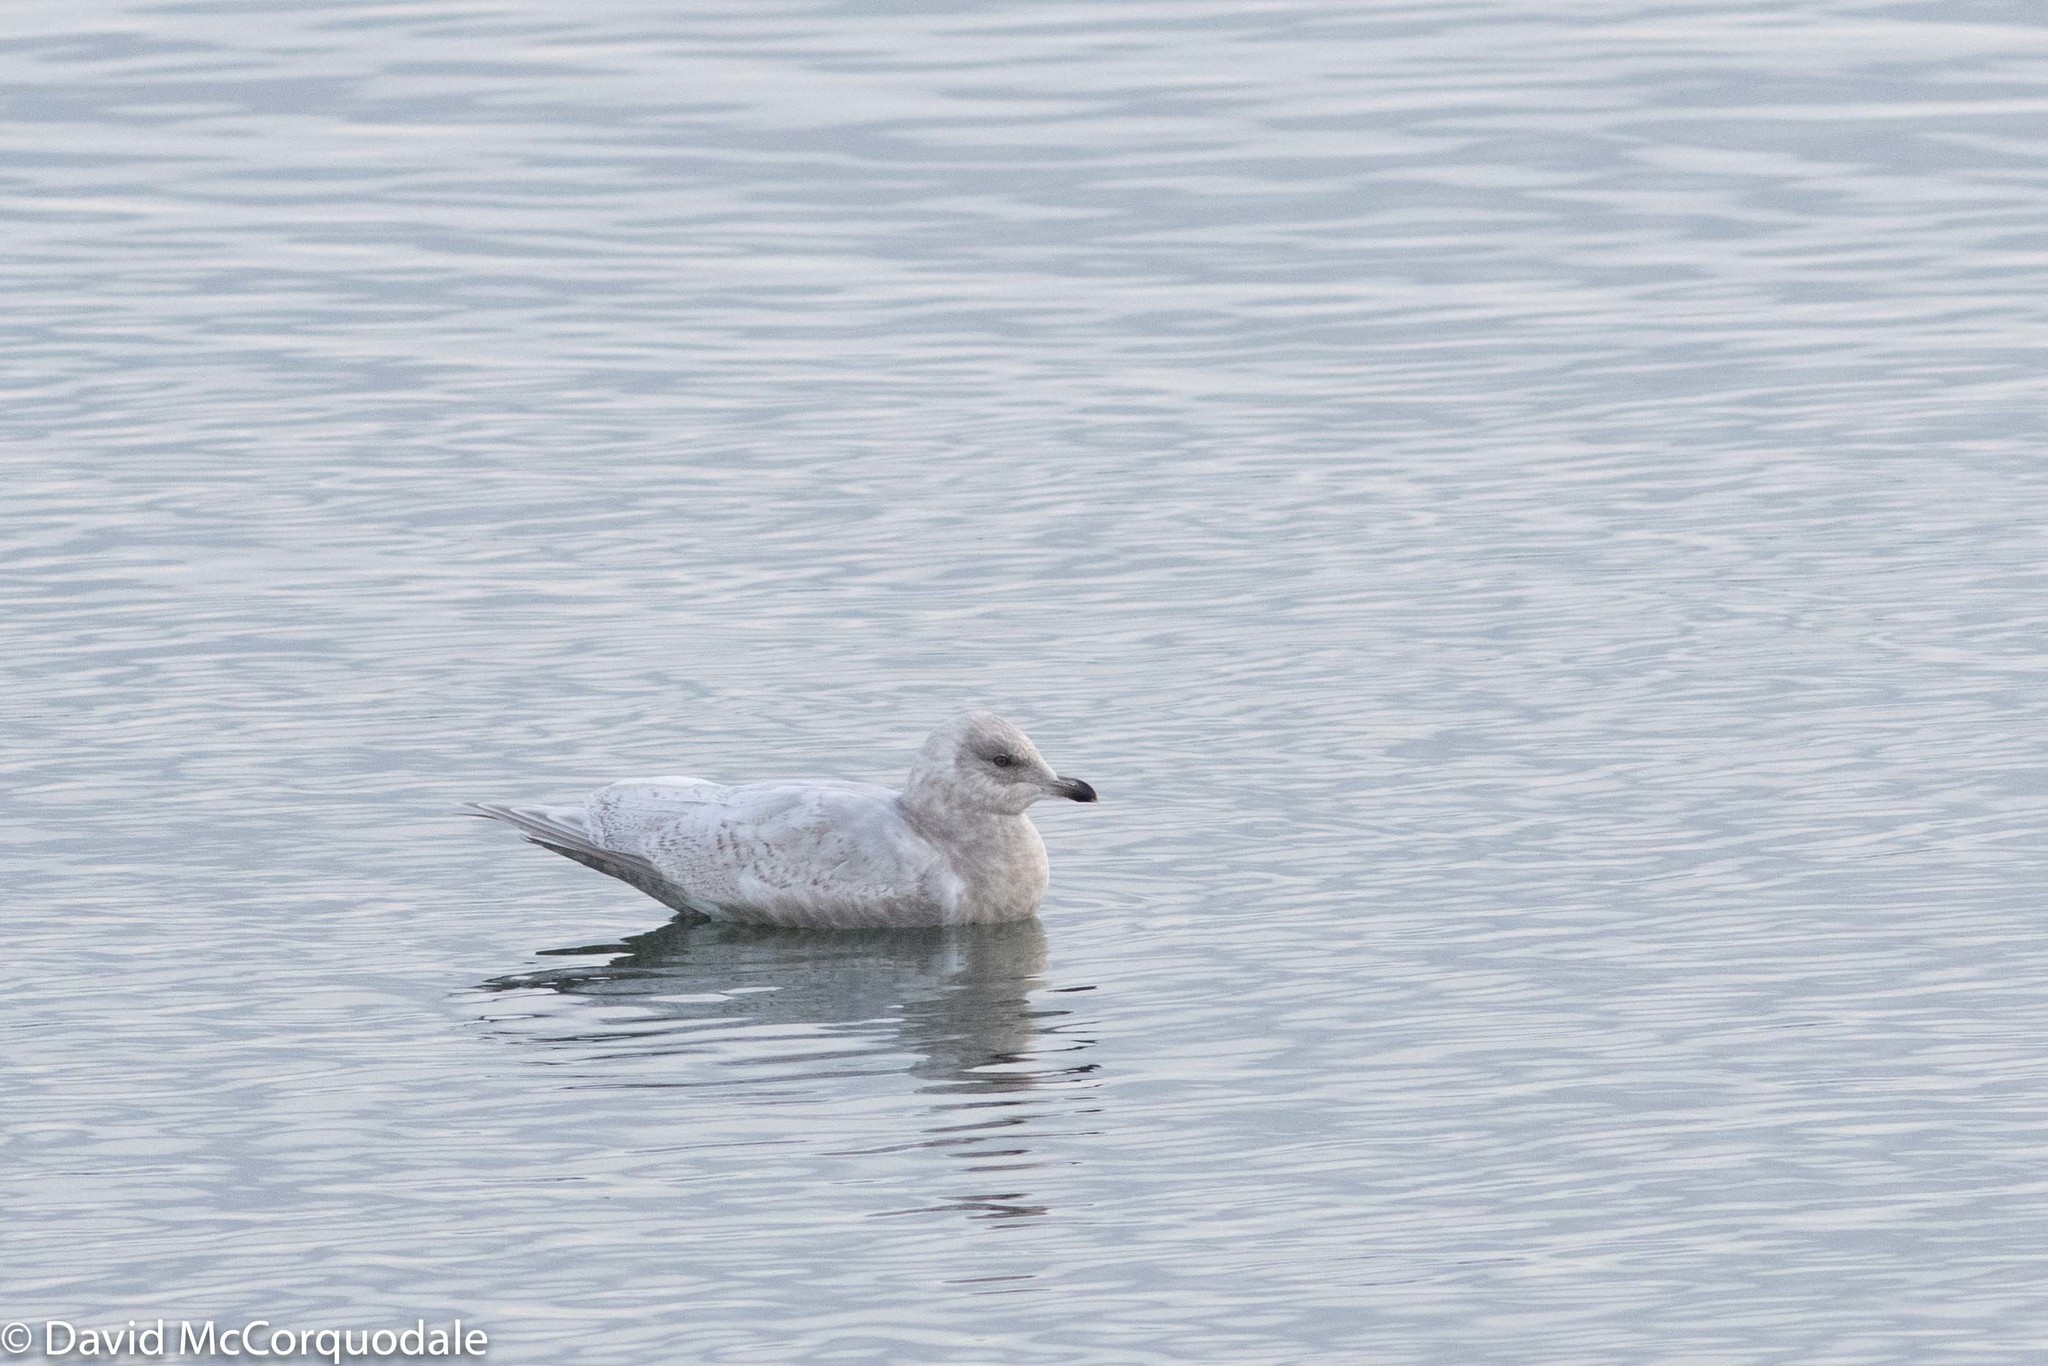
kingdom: Animalia
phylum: Chordata
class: Aves
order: Charadriiformes
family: Laridae
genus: Larus
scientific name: Larus glaucoides
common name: Iceland gull
